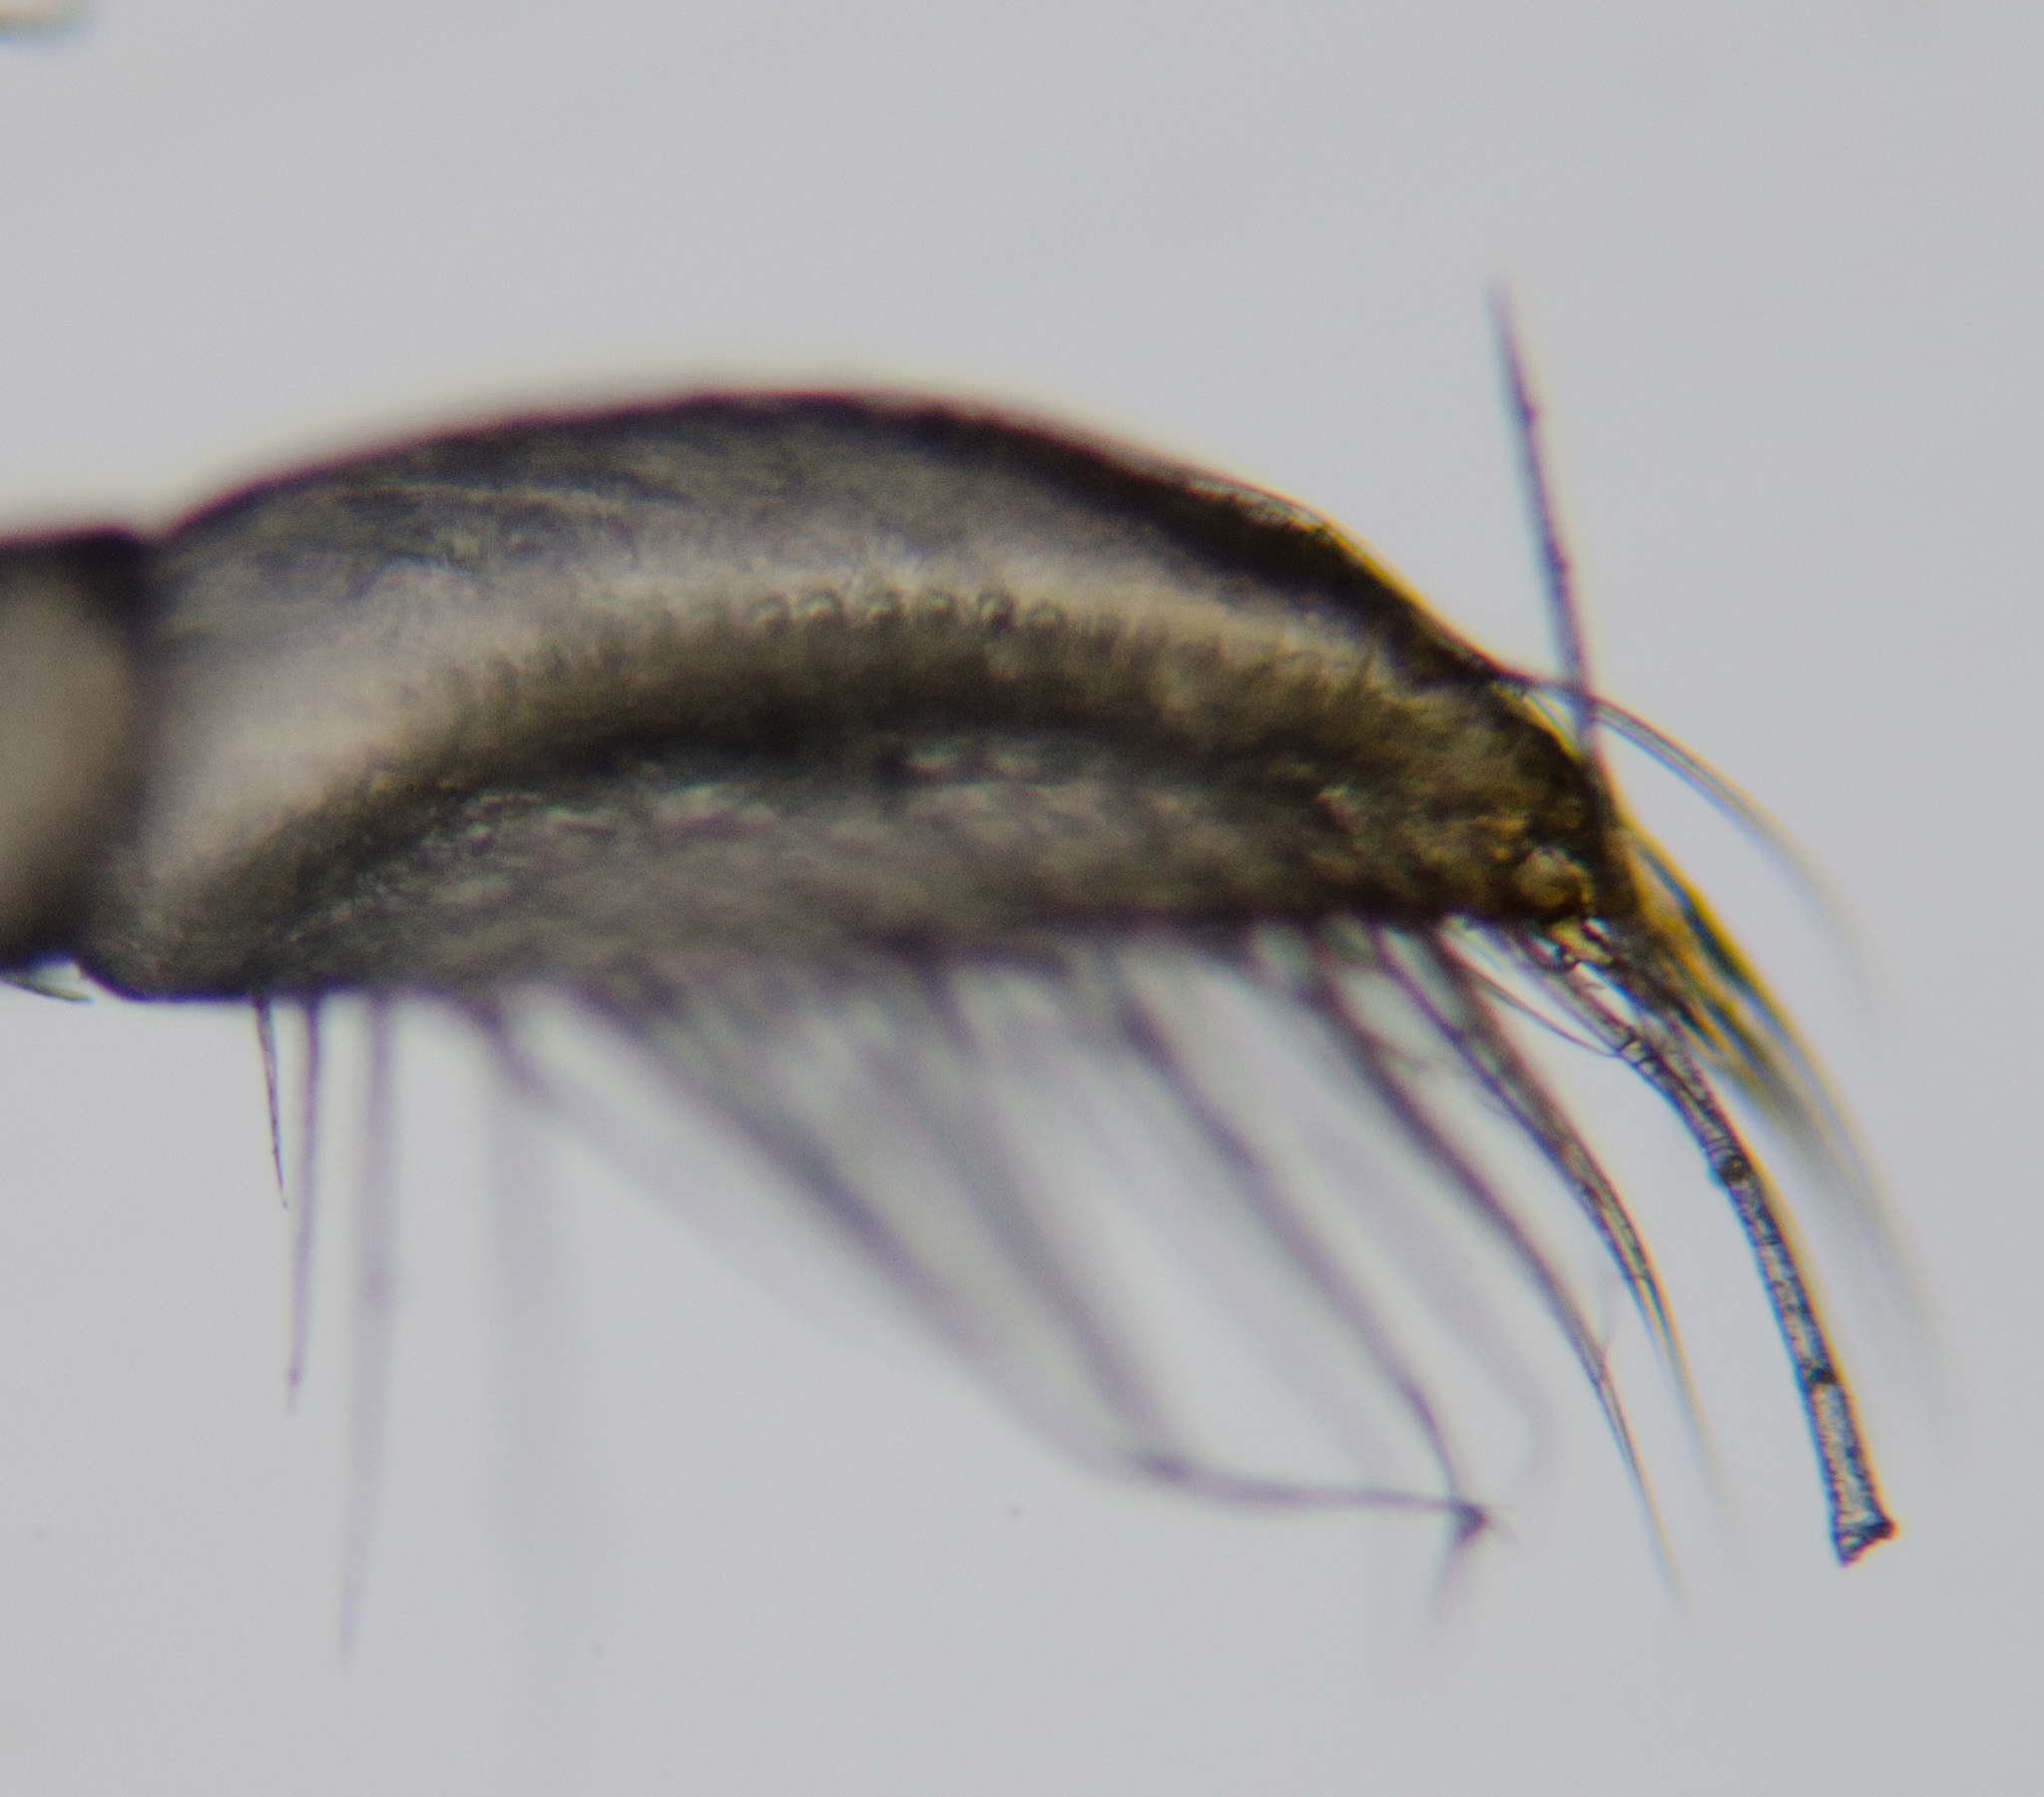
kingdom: Animalia
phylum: Arthropoda
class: Insecta
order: Hemiptera
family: Corixidae
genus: Sigara
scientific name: Sigara mckinstryi
